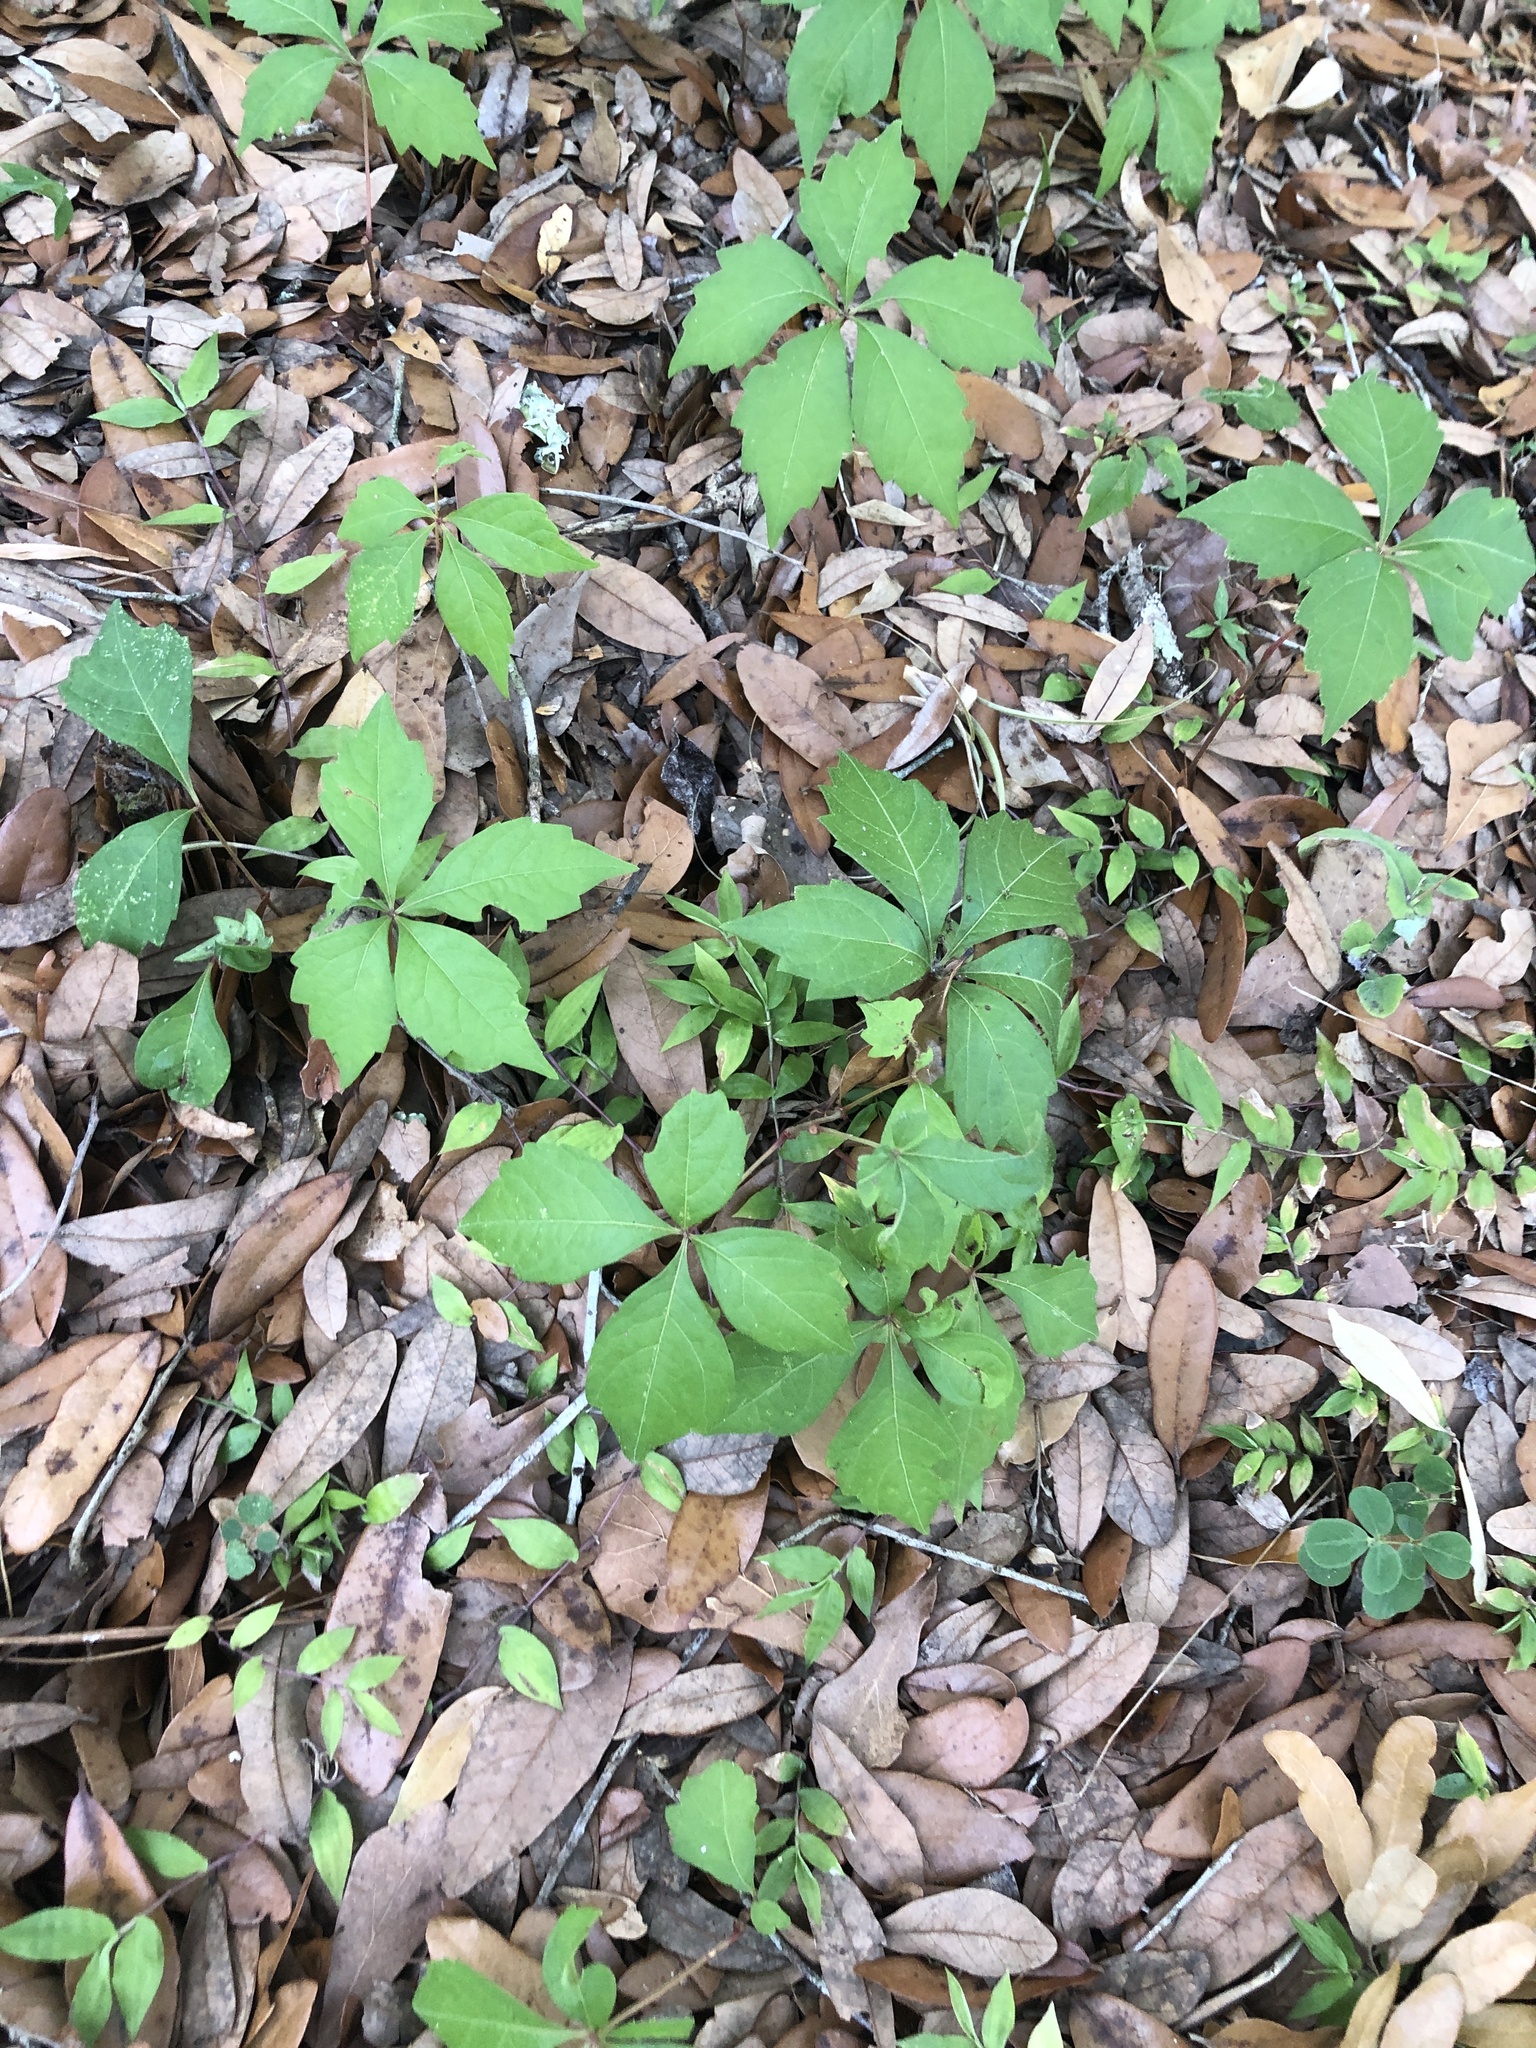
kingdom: Plantae
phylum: Tracheophyta
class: Magnoliopsida
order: Vitales
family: Vitaceae
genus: Parthenocissus
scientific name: Parthenocissus quinquefolia
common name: Virginia-creeper
